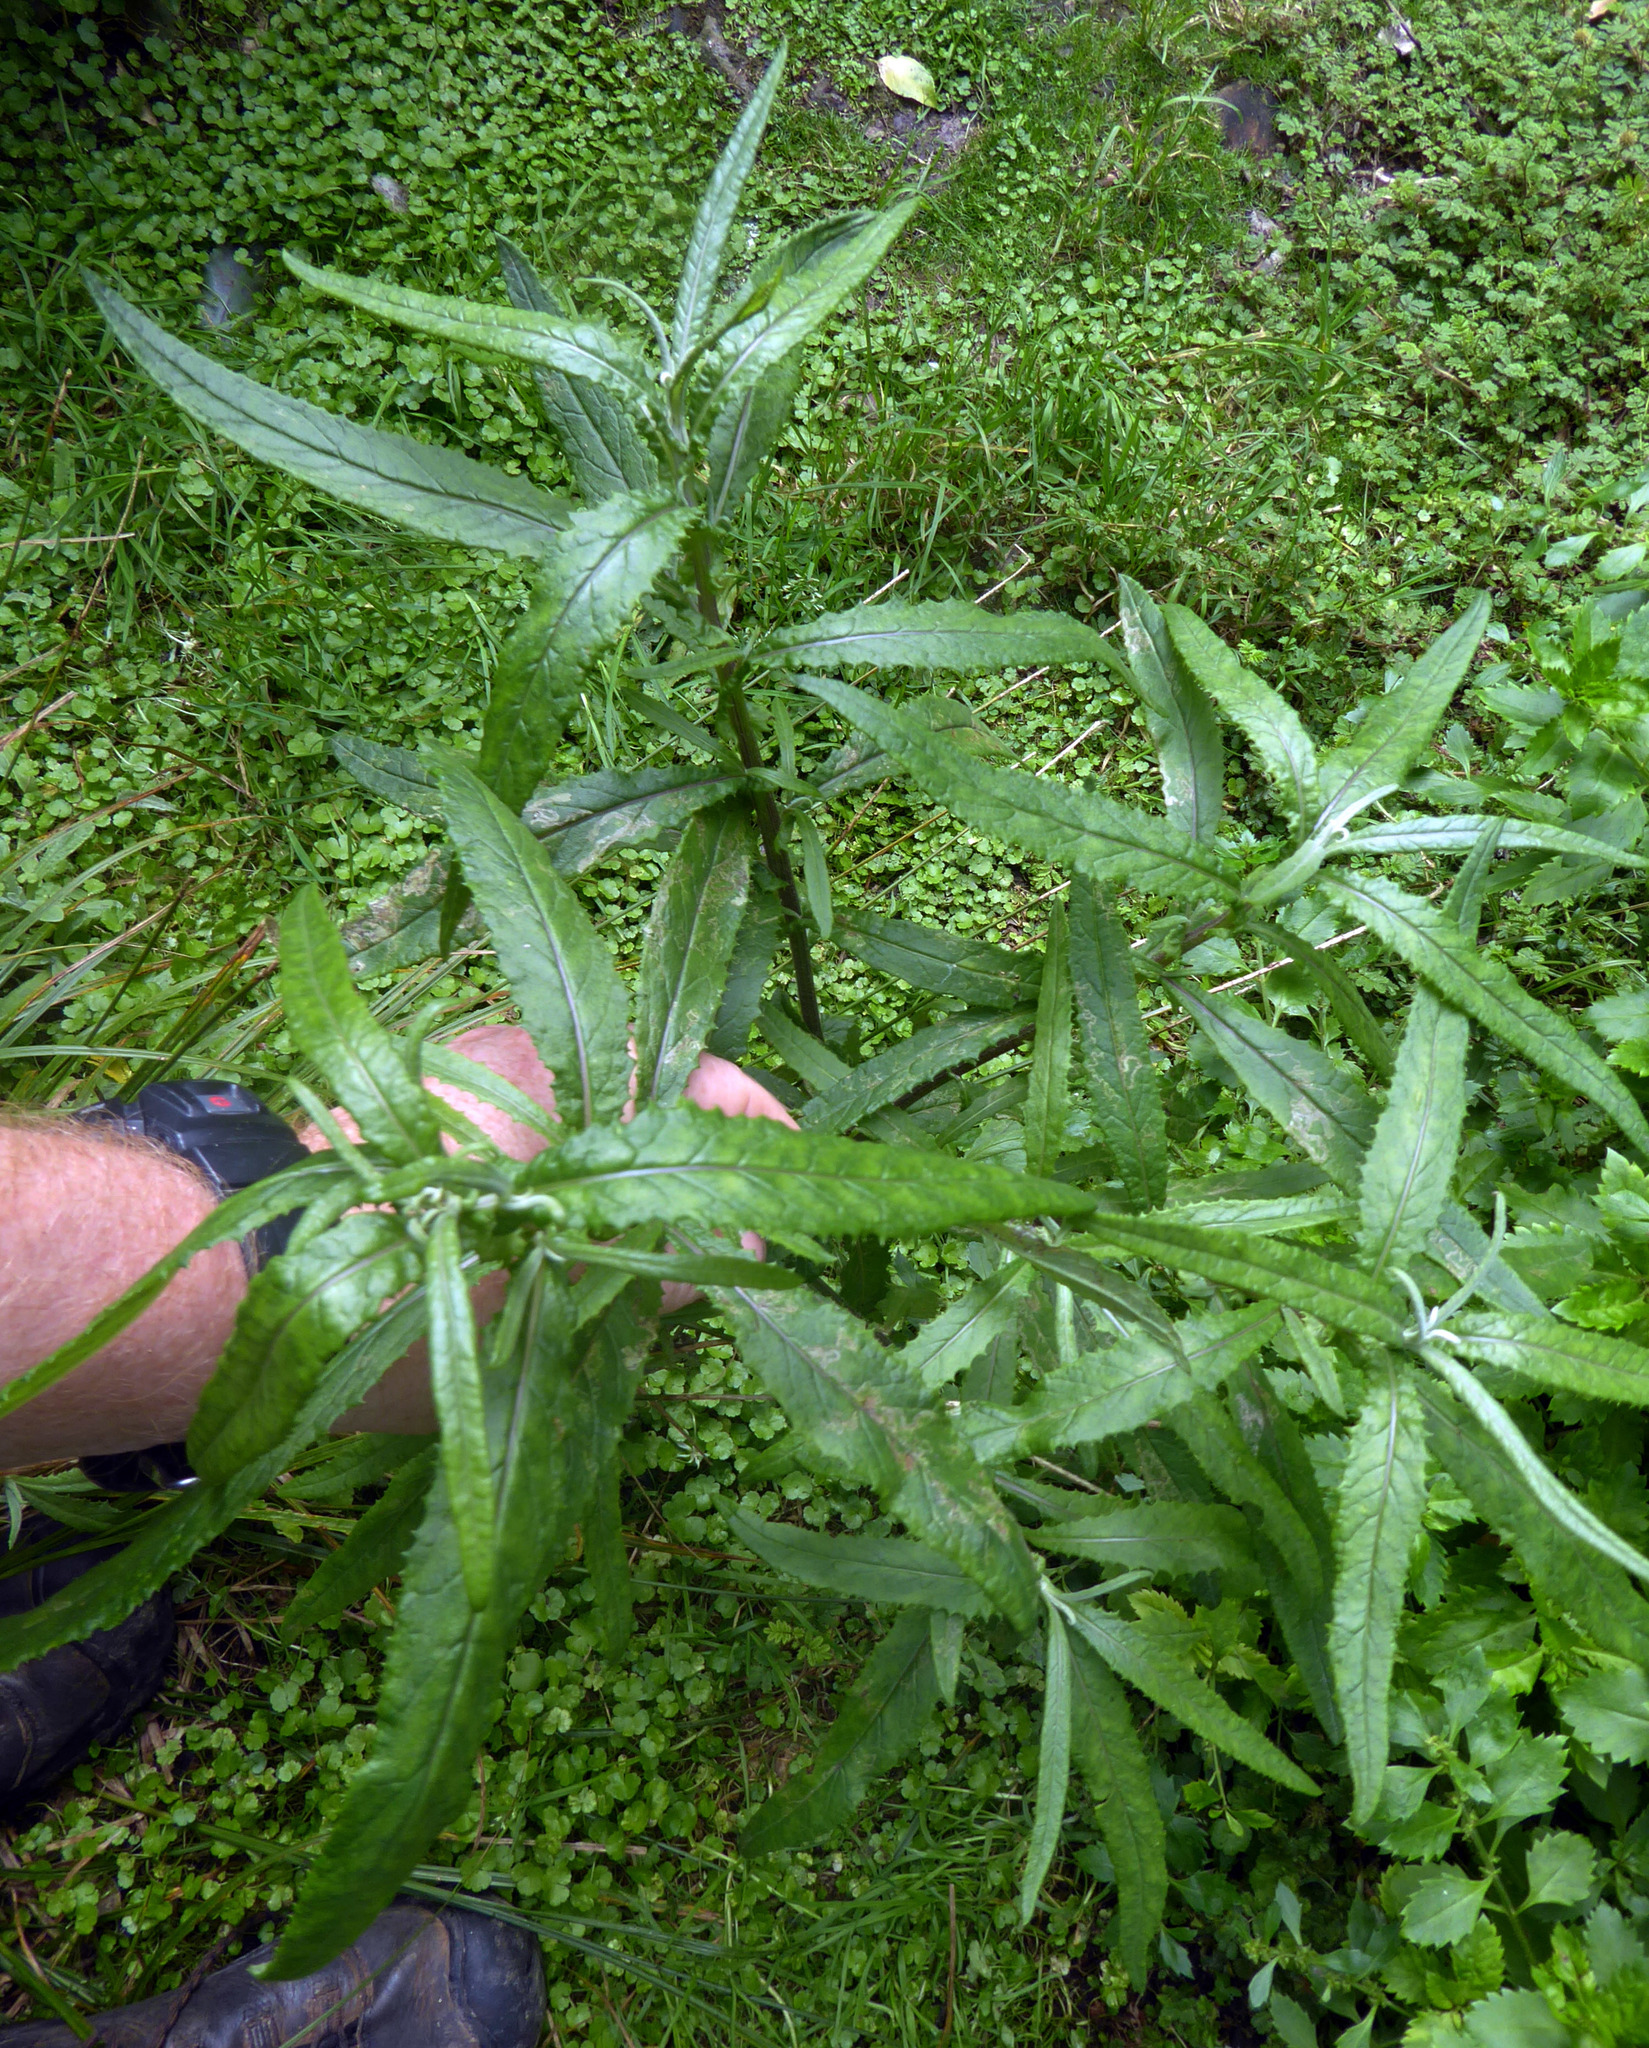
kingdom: Plantae
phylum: Tracheophyta
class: Magnoliopsida
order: Asterales
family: Asteraceae
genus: Senecio
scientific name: Senecio minimus
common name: Toothed fireweed
